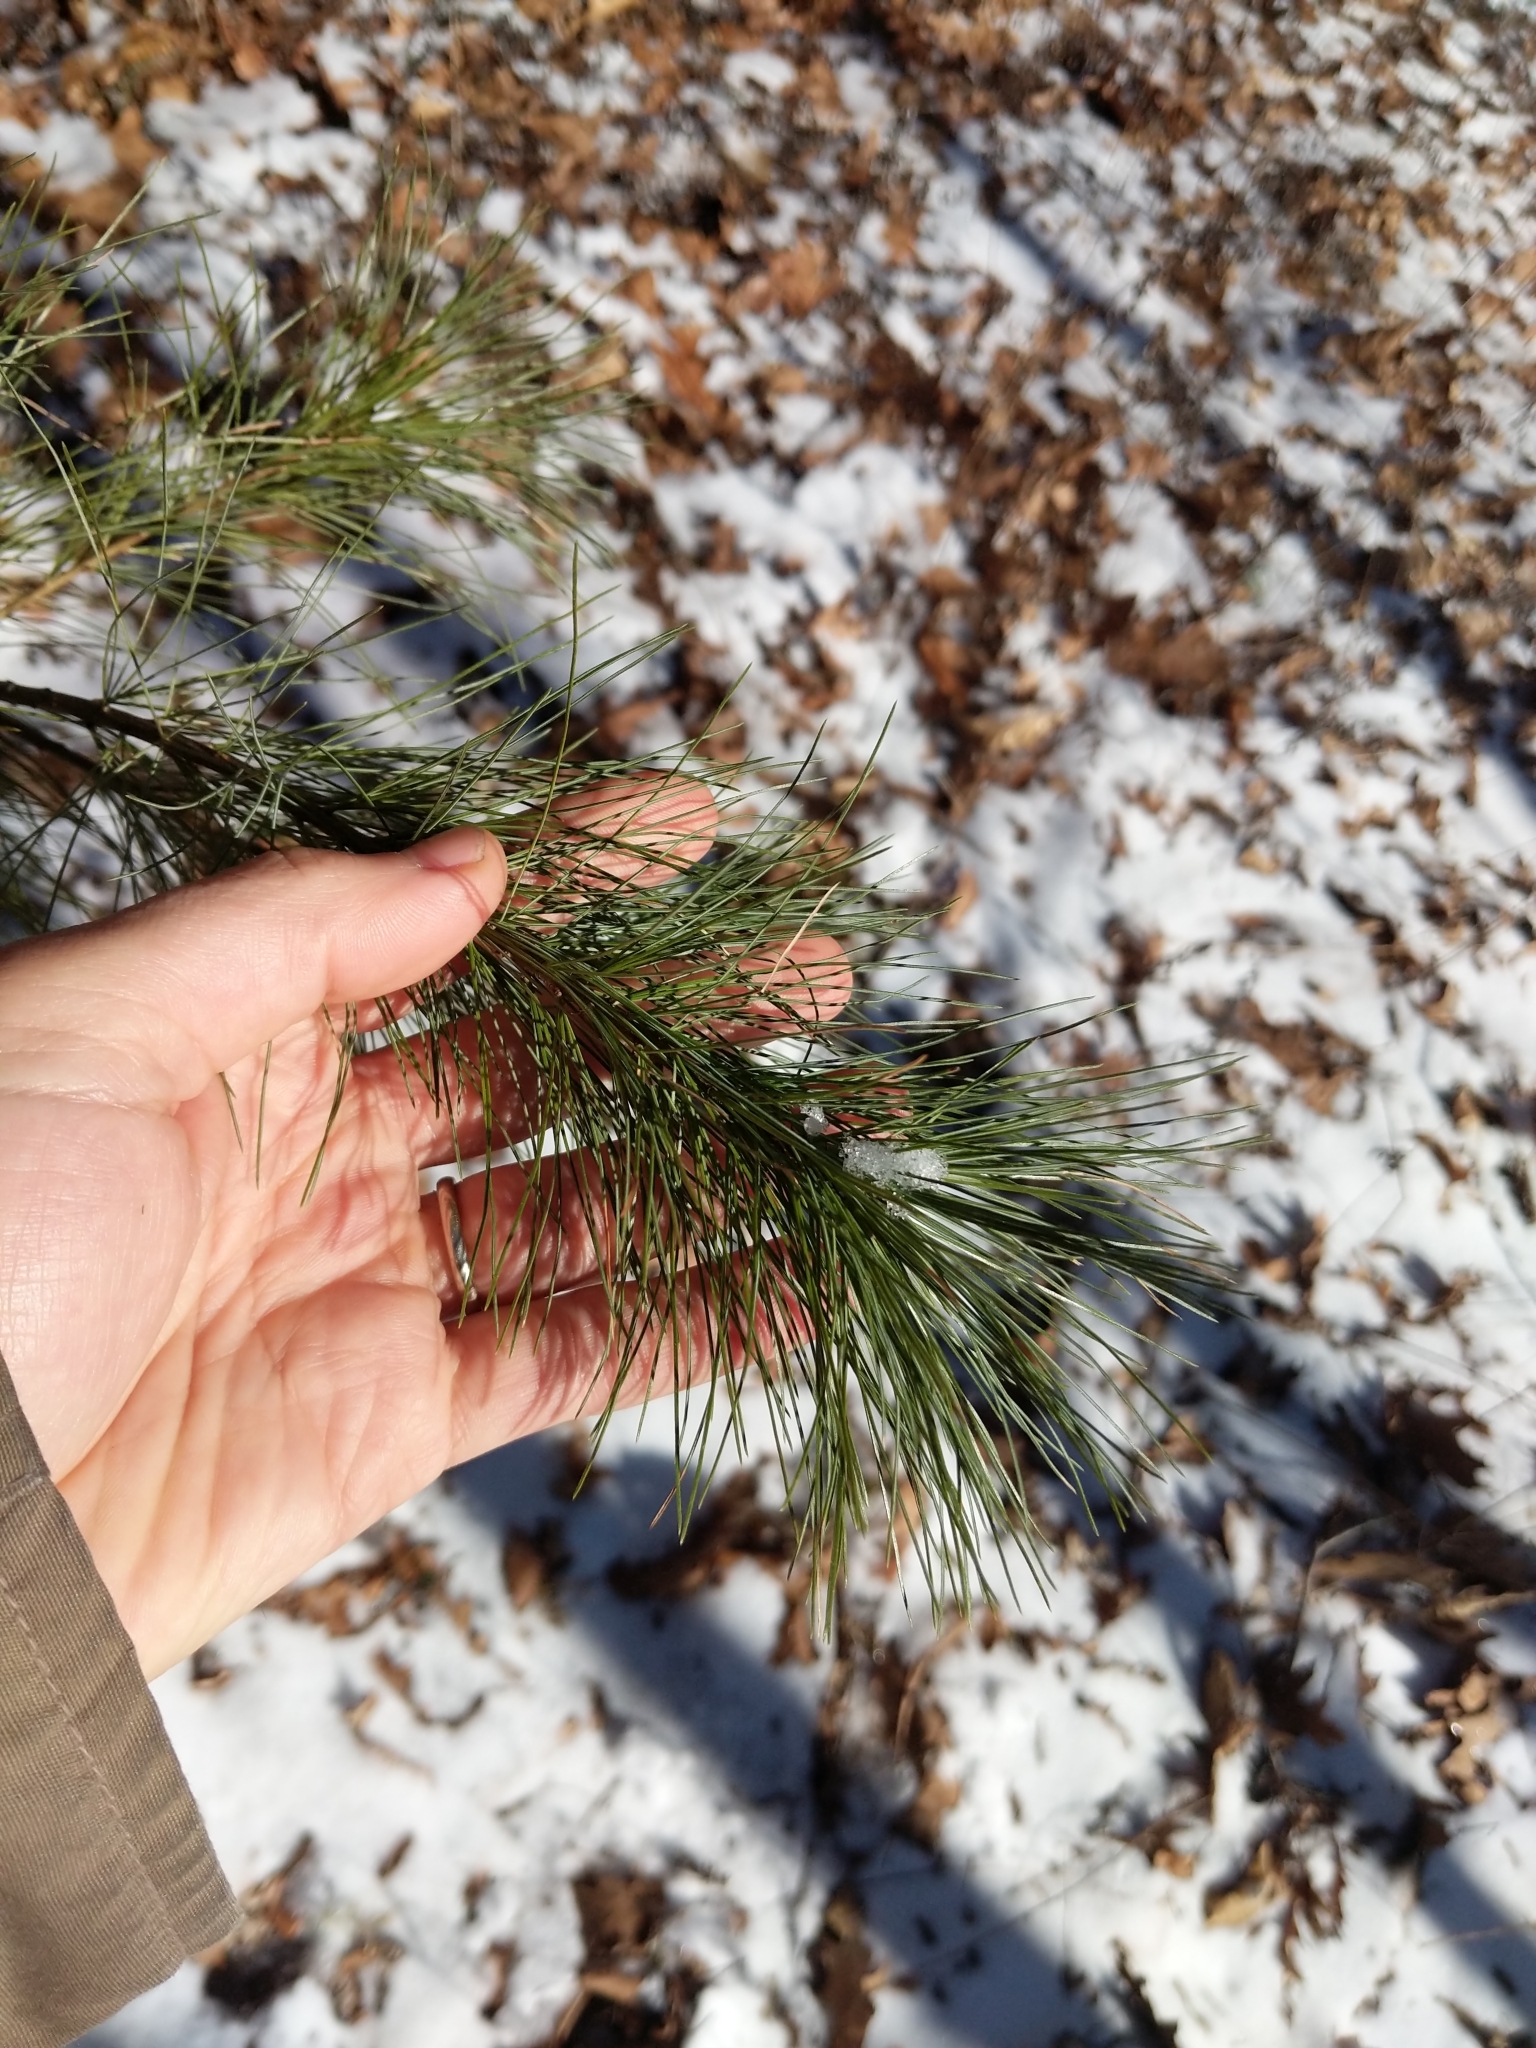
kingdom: Plantae
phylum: Tracheophyta
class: Pinopsida
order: Pinales
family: Pinaceae
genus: Pinus
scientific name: Pinus strobus
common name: Weymouth pine
